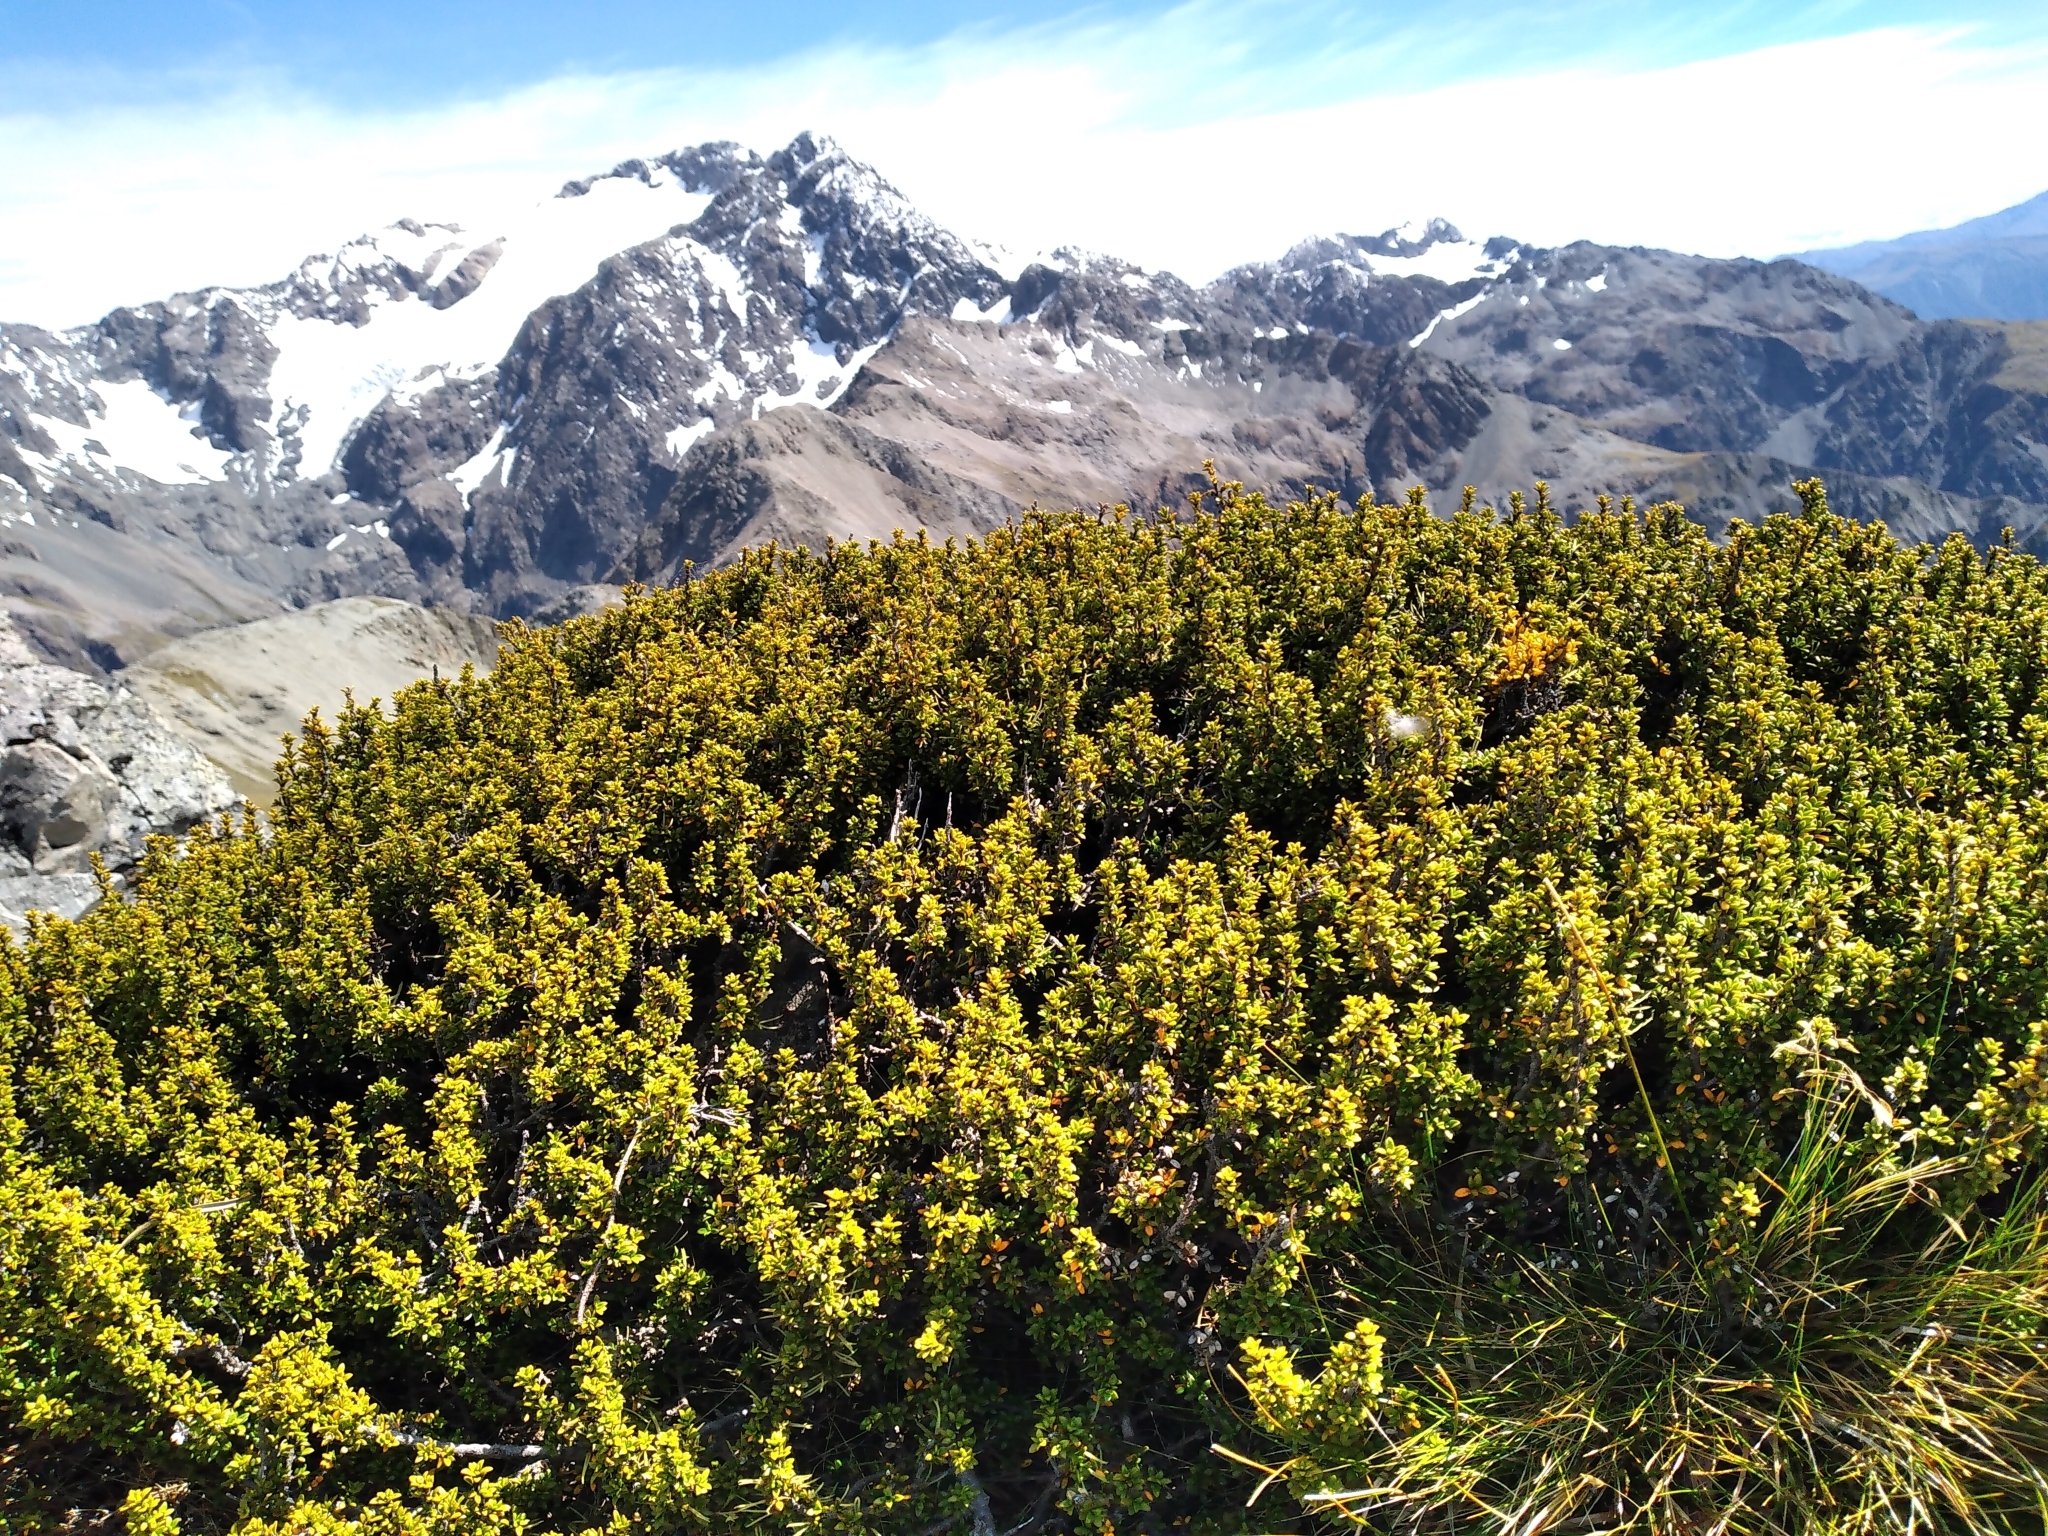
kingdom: Plantae
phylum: Tracheophyta
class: Magnoliopsida
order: Gentianales
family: Rubiaceae
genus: Coprosma
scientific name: Coprosma fowerakeri
